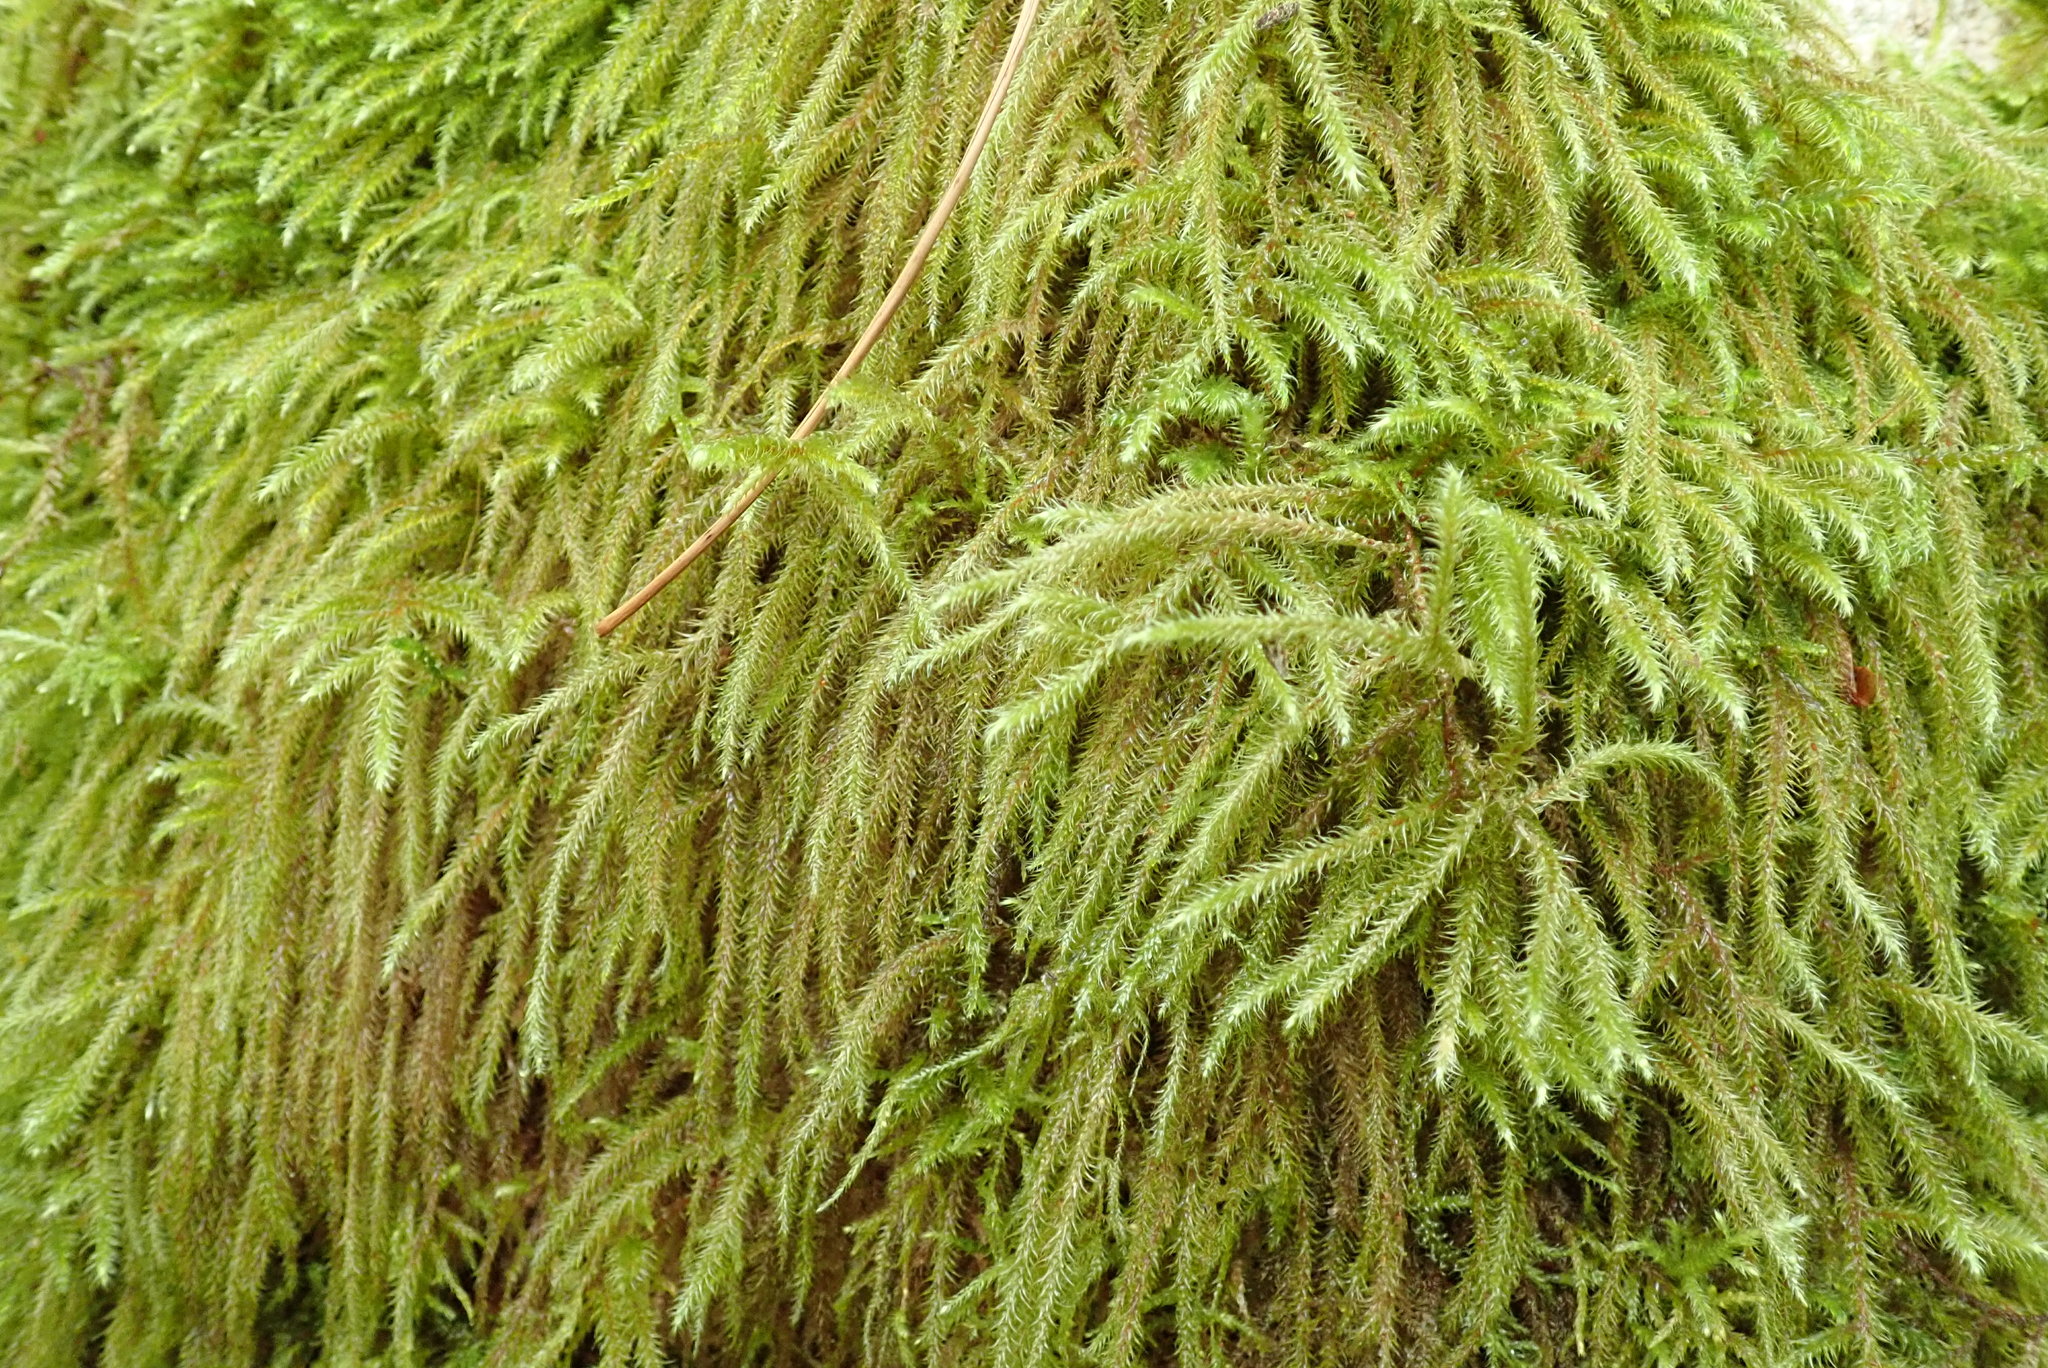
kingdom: Plantae
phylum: Bryophyta
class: Bryopsida
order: Hypnales
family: Hylocomiaceae
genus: Rhytidiadelphus
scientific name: Rhytidiadelphus loreus
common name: Lanky moss
